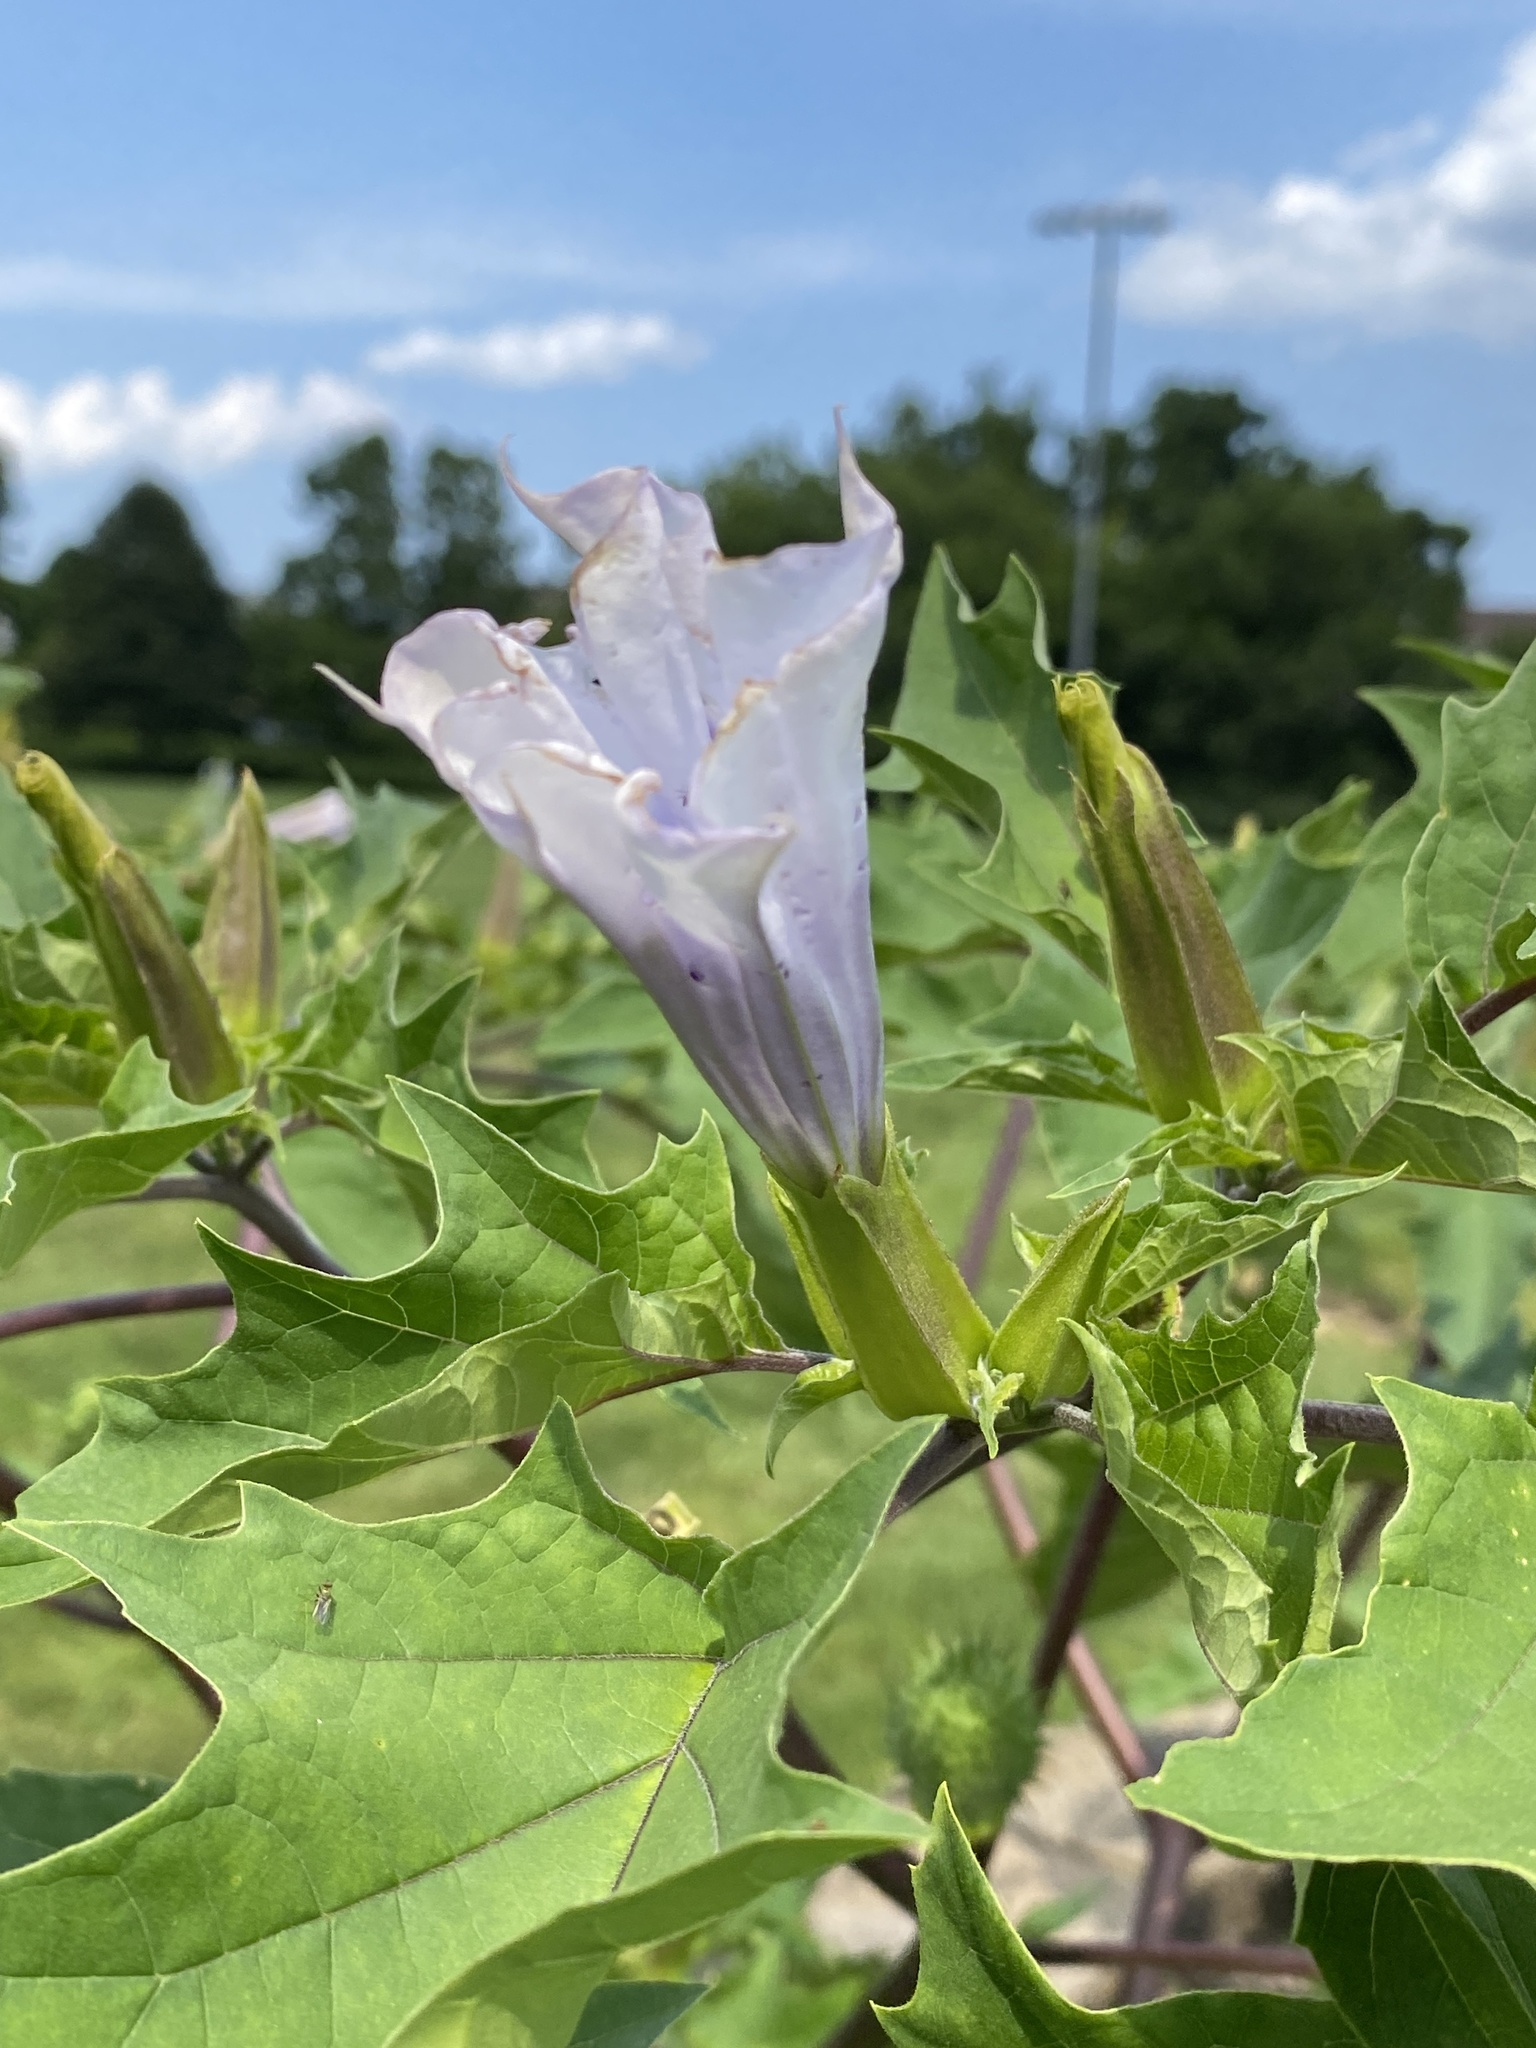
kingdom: Plantae
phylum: Tracheophyta
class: Magnoliopsida
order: Solanales
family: Solanaceae
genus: Datura
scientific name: Datura stramonium
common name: Thorn-apple
